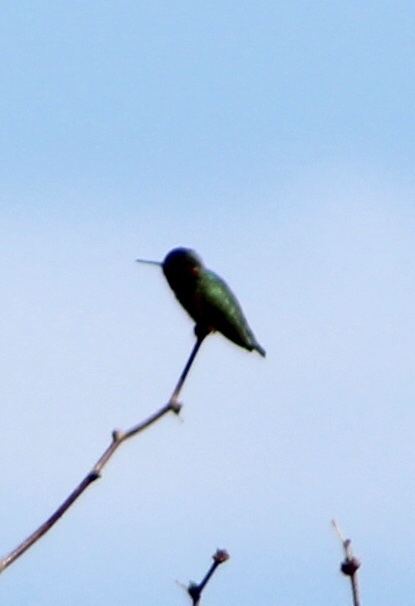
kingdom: Animalia
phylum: Chordata
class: Aves
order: Apodiformes
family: Trochilidae
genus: Calypte
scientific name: Calypte anna
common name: Anna's hummingbird
